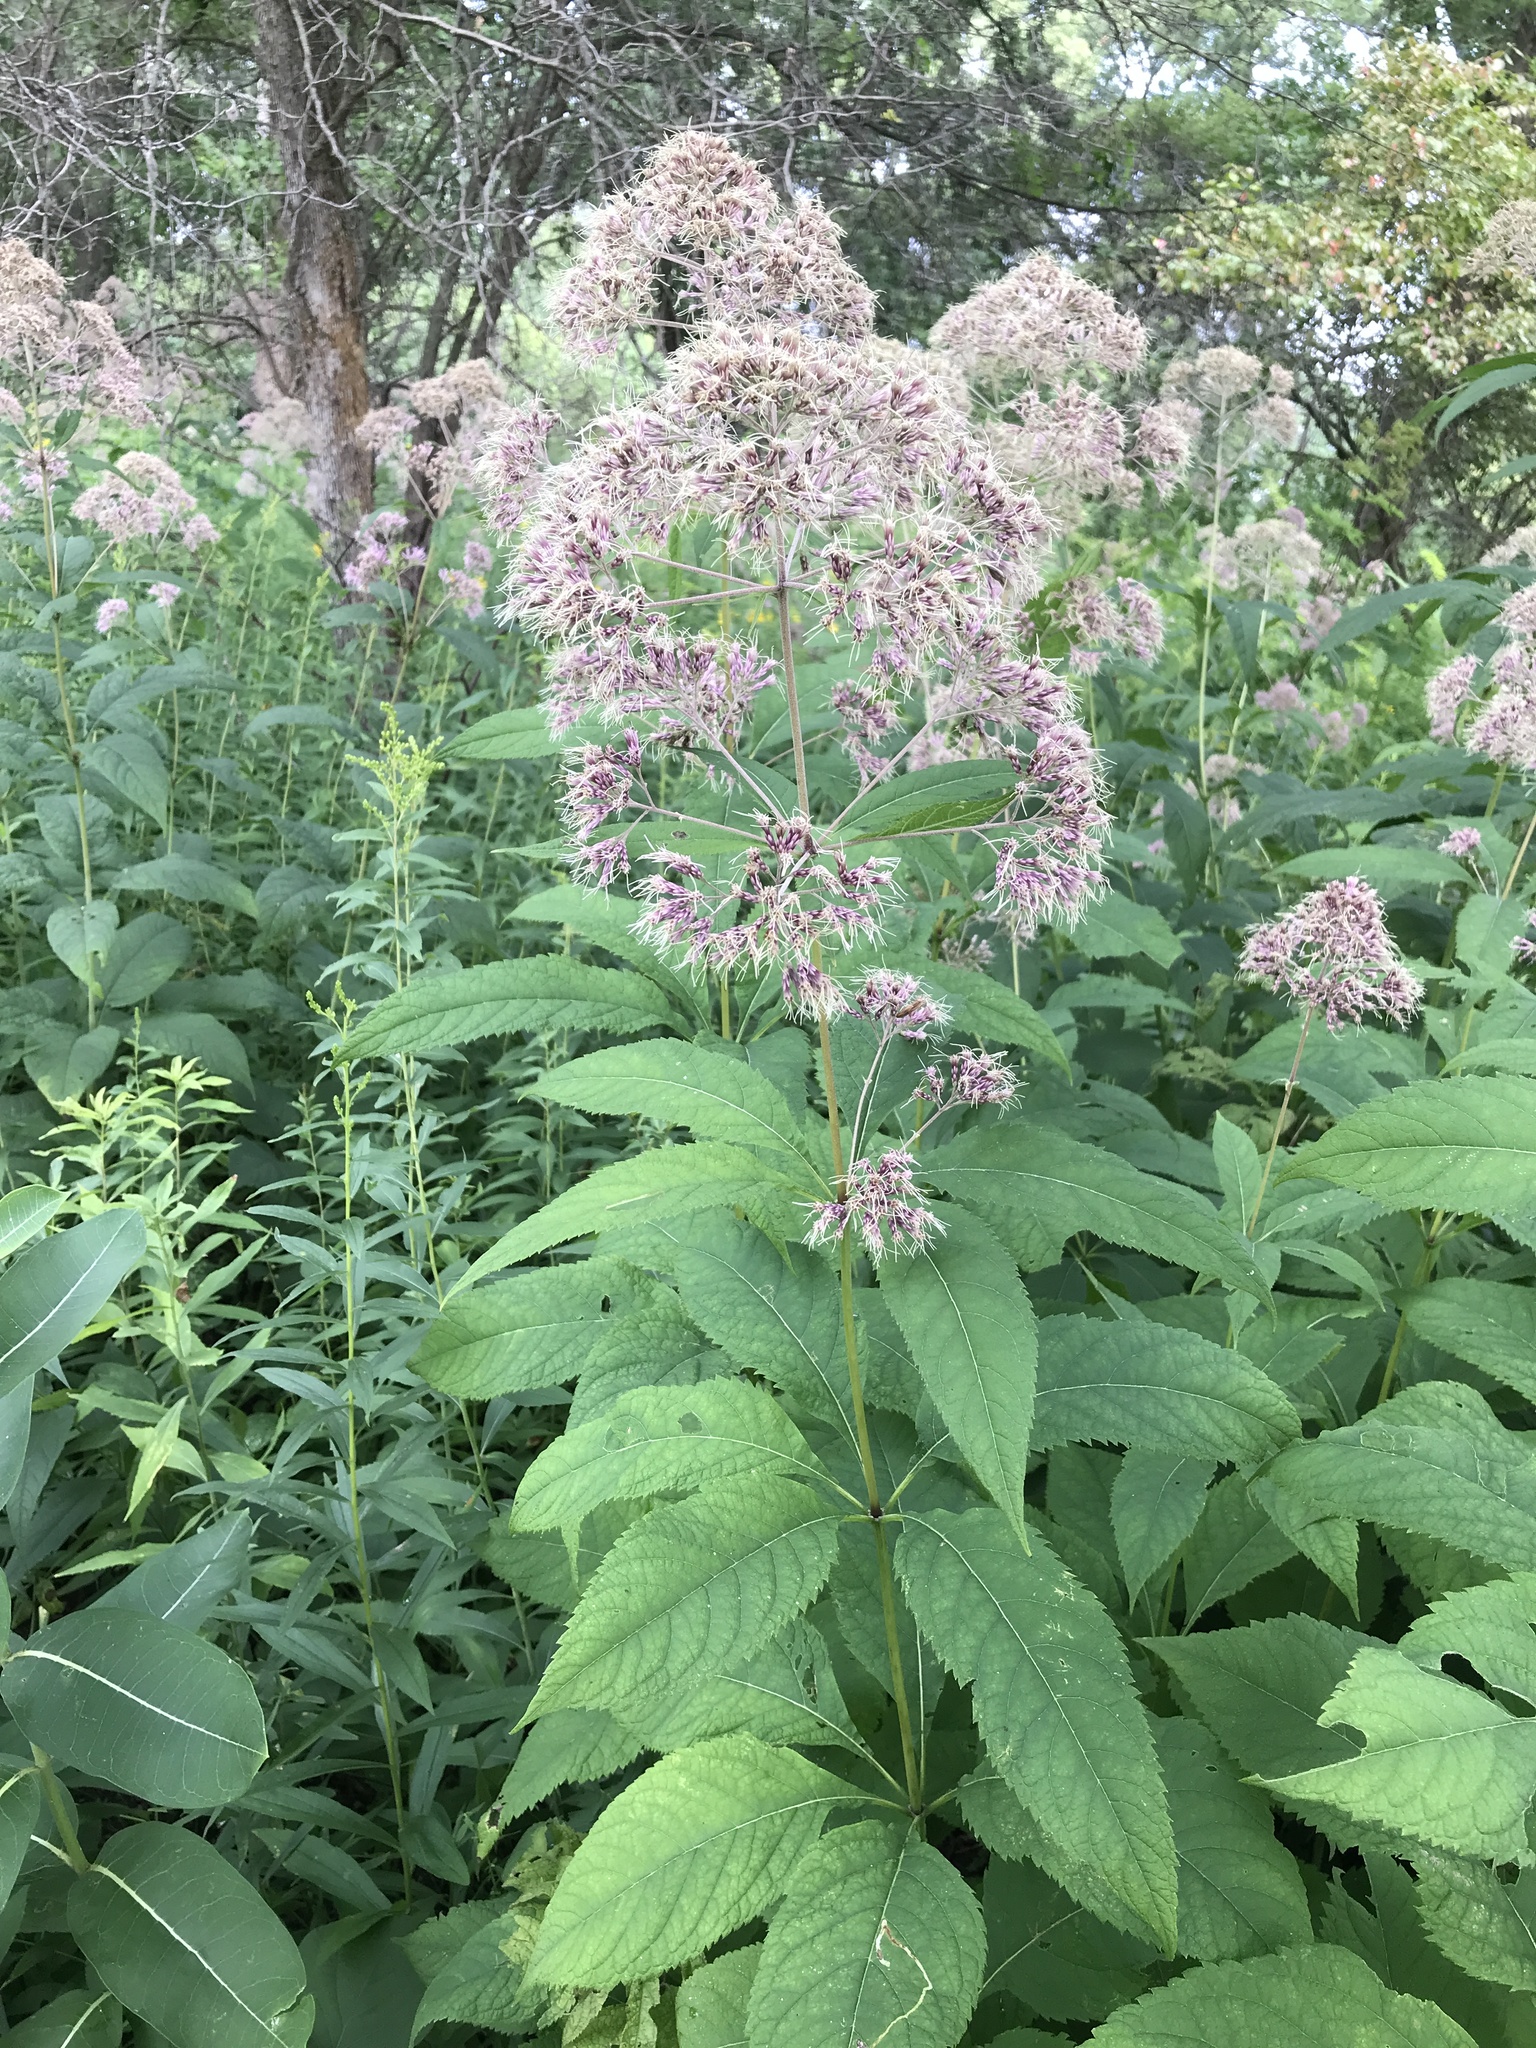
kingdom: Plantae
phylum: Tracheophyta
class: Magnoliopsida
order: Asterales
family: Asteraceae
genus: Eutrochium
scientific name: Eutrochium purpureum
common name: Gravelroot
